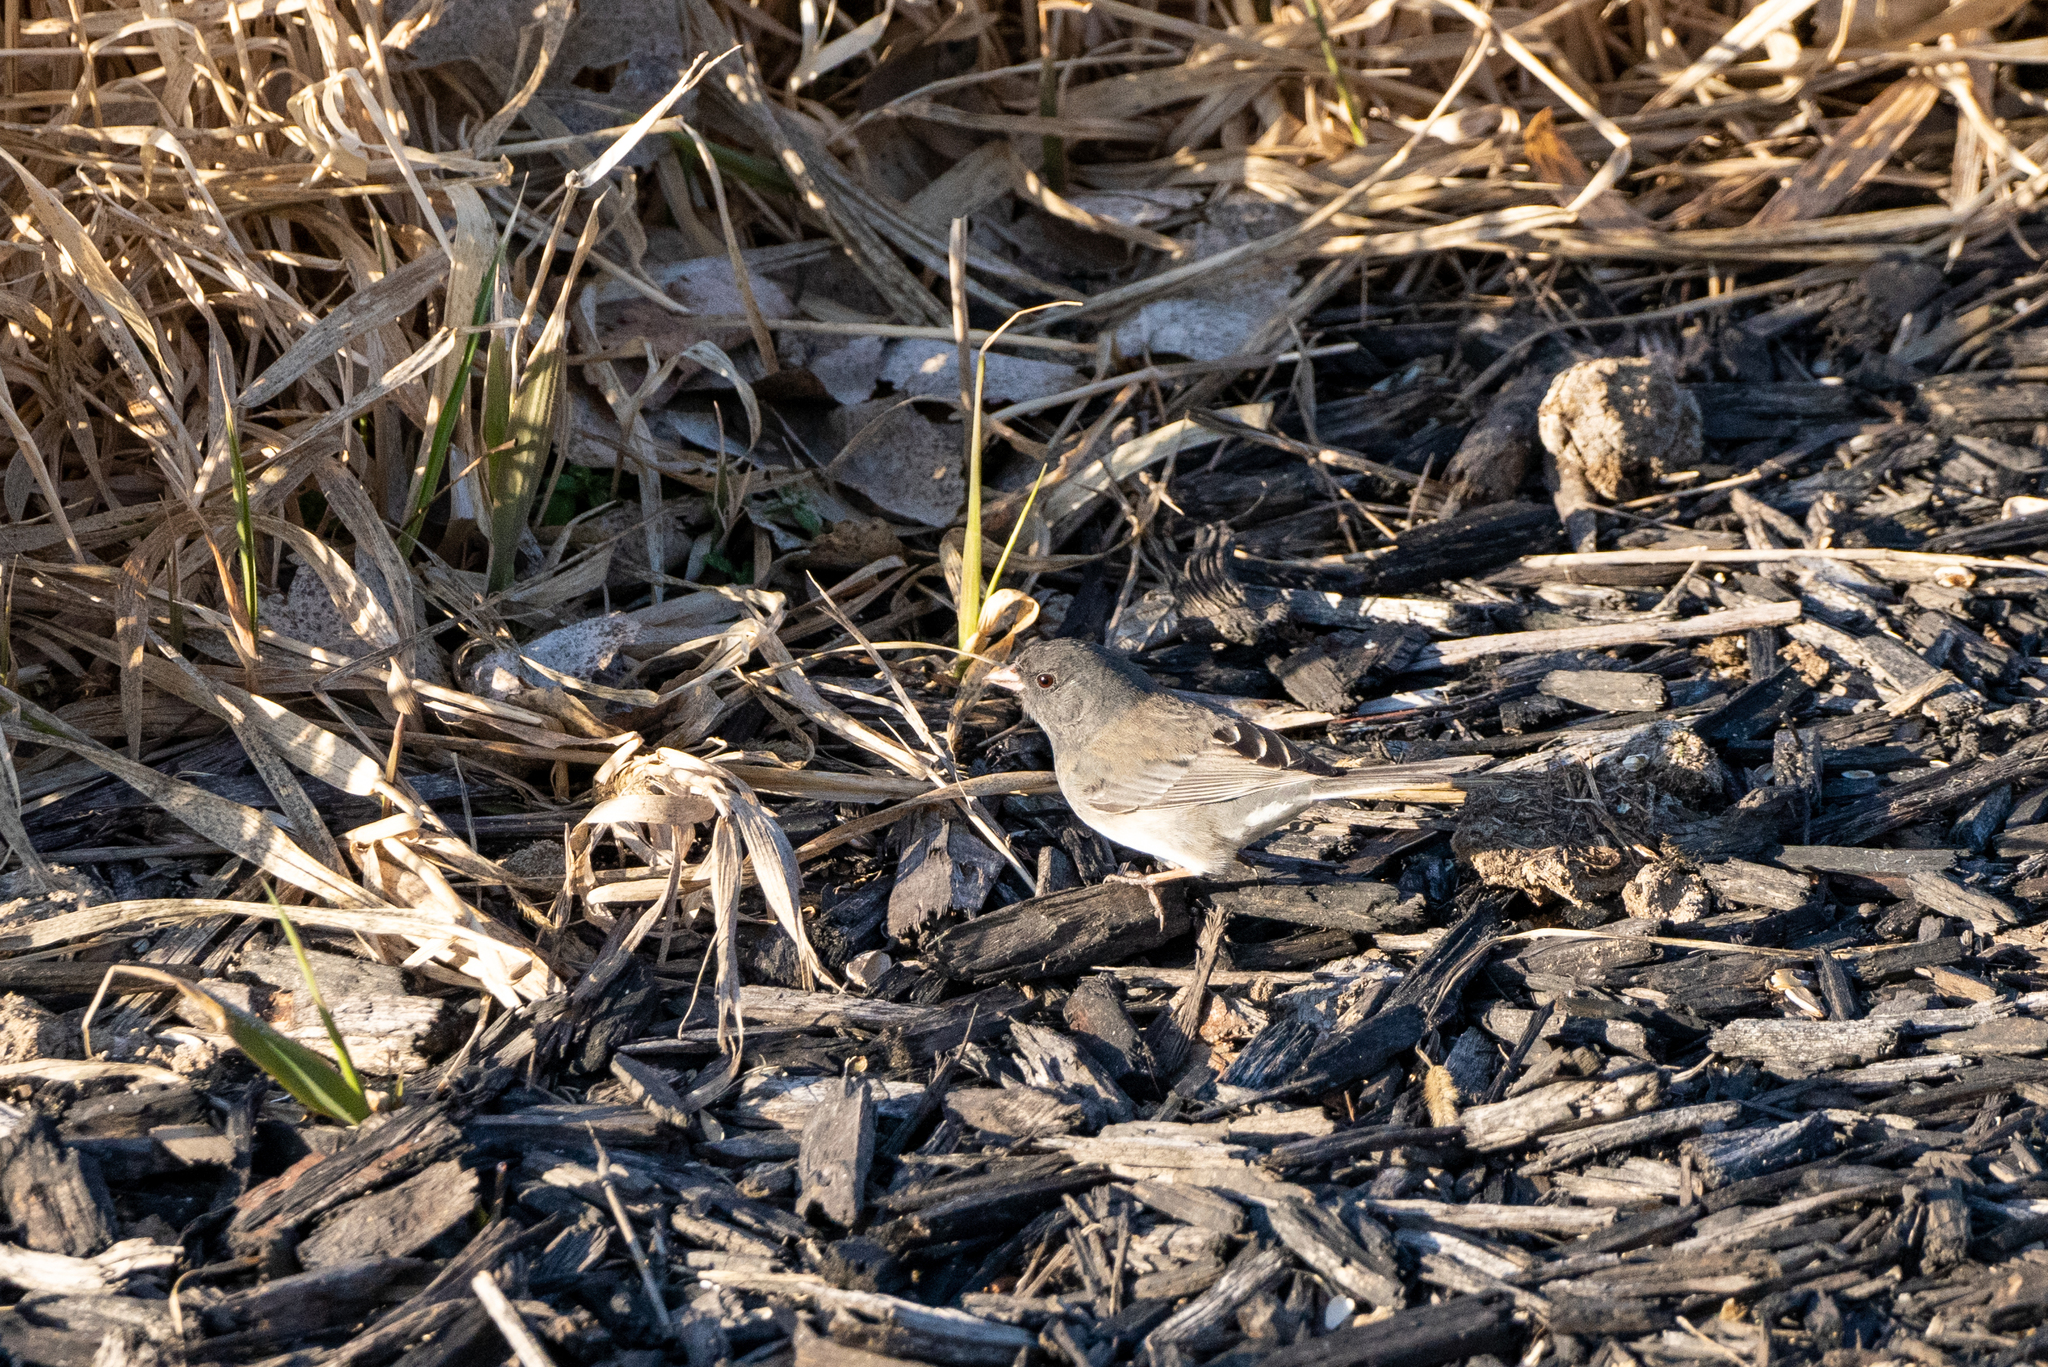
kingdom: Animalia
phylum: Chordata
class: Aves
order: Passeriformes
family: Passerellidae
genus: Junco
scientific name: Junco hyemalis
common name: Dark-eyed junco
